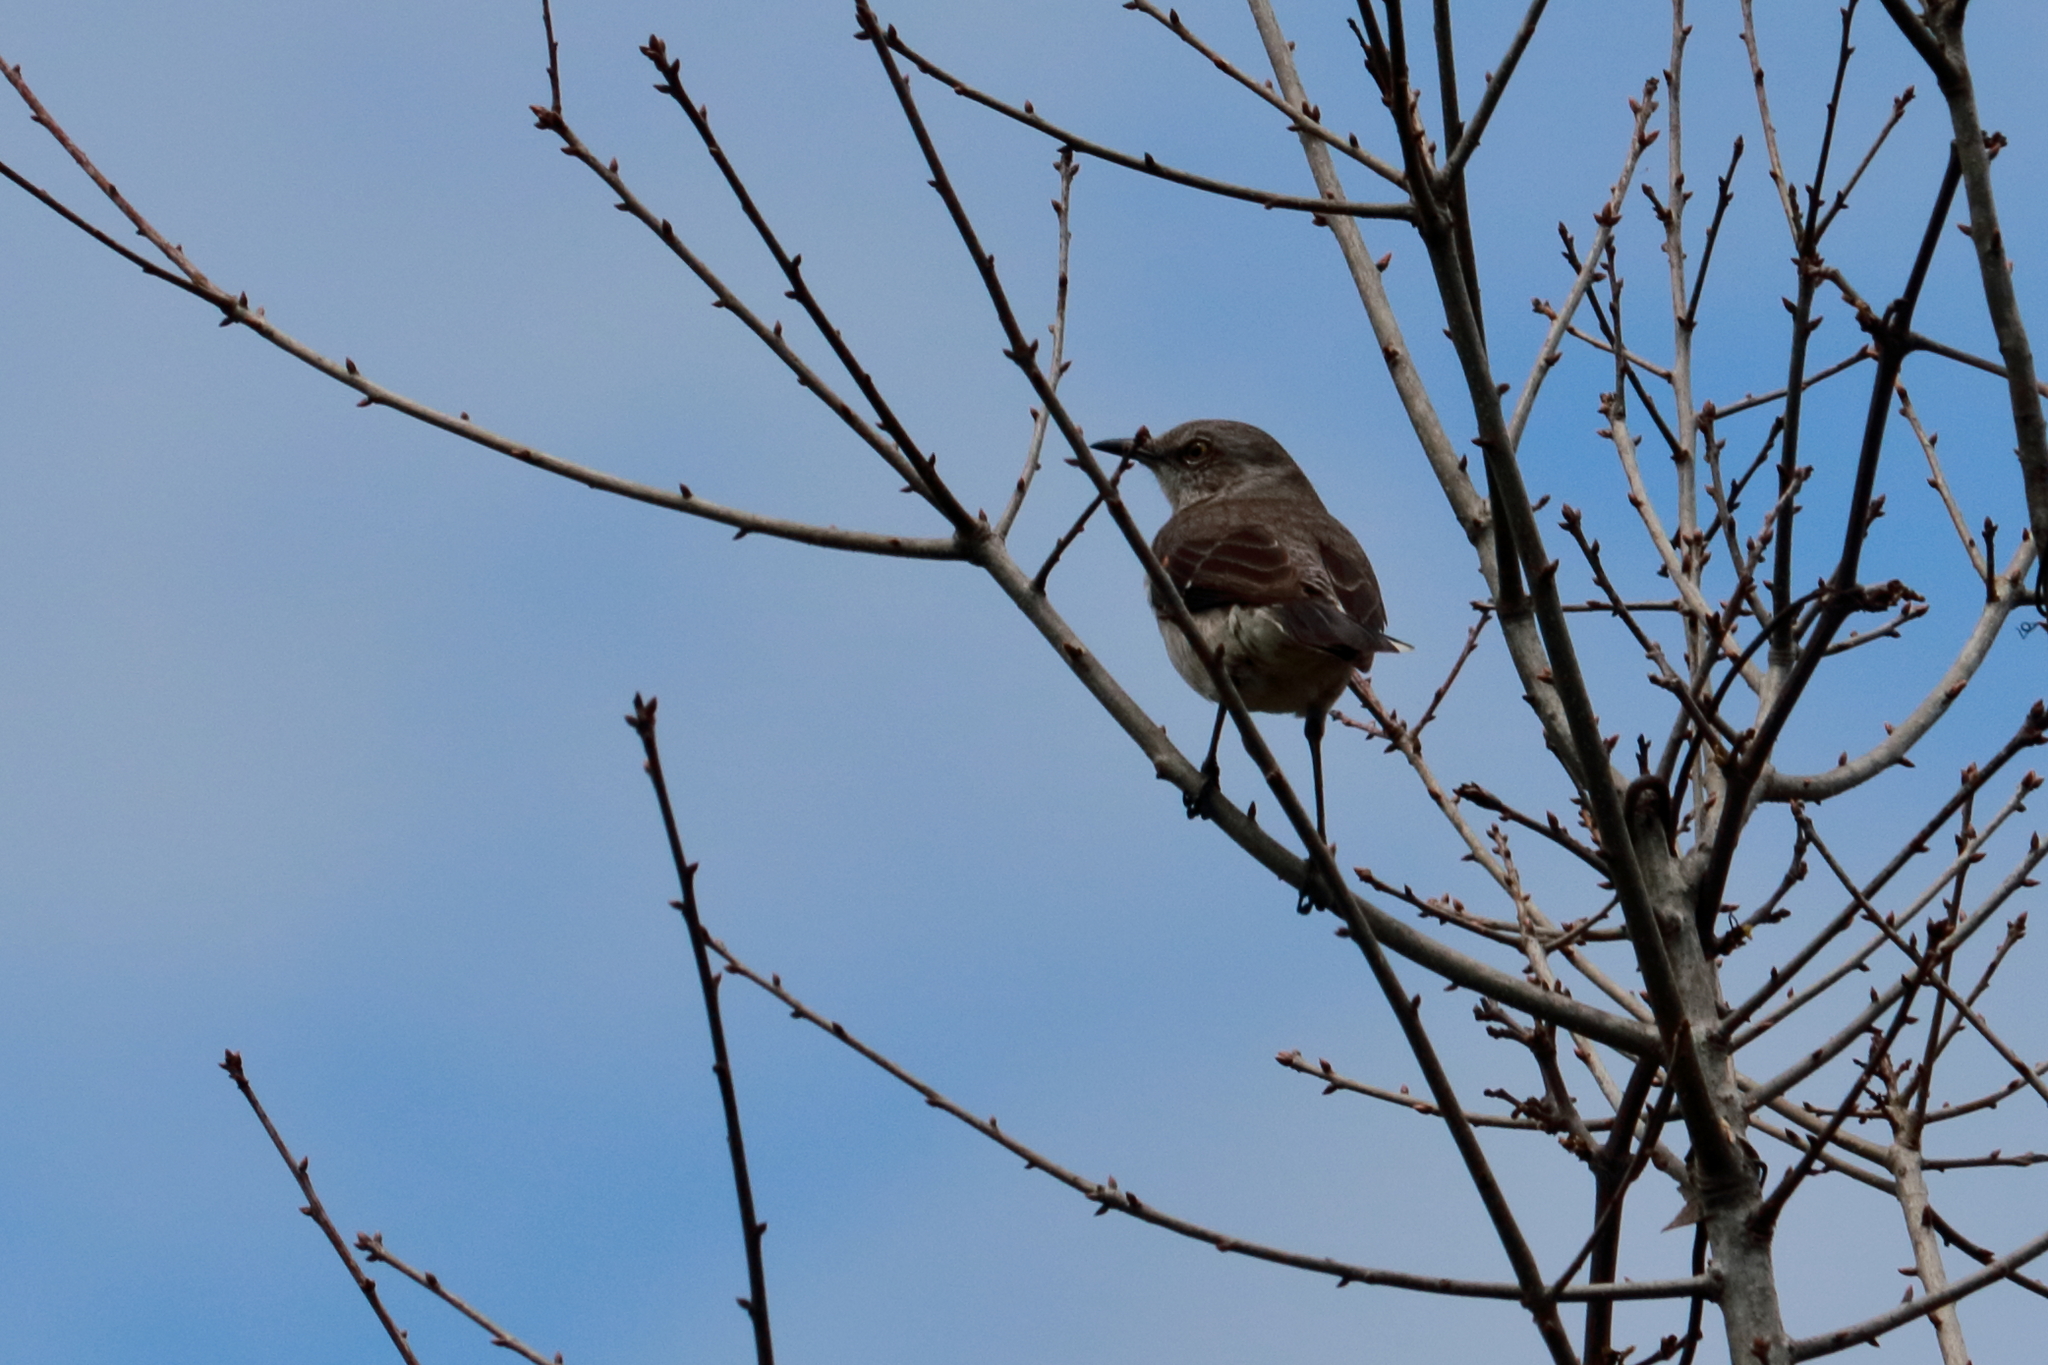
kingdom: Animalia
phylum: Chordata
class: Aves
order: Passeriformes
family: Mimidae
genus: Mimus
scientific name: Mimus polyglottos
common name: Northern mockingbird
